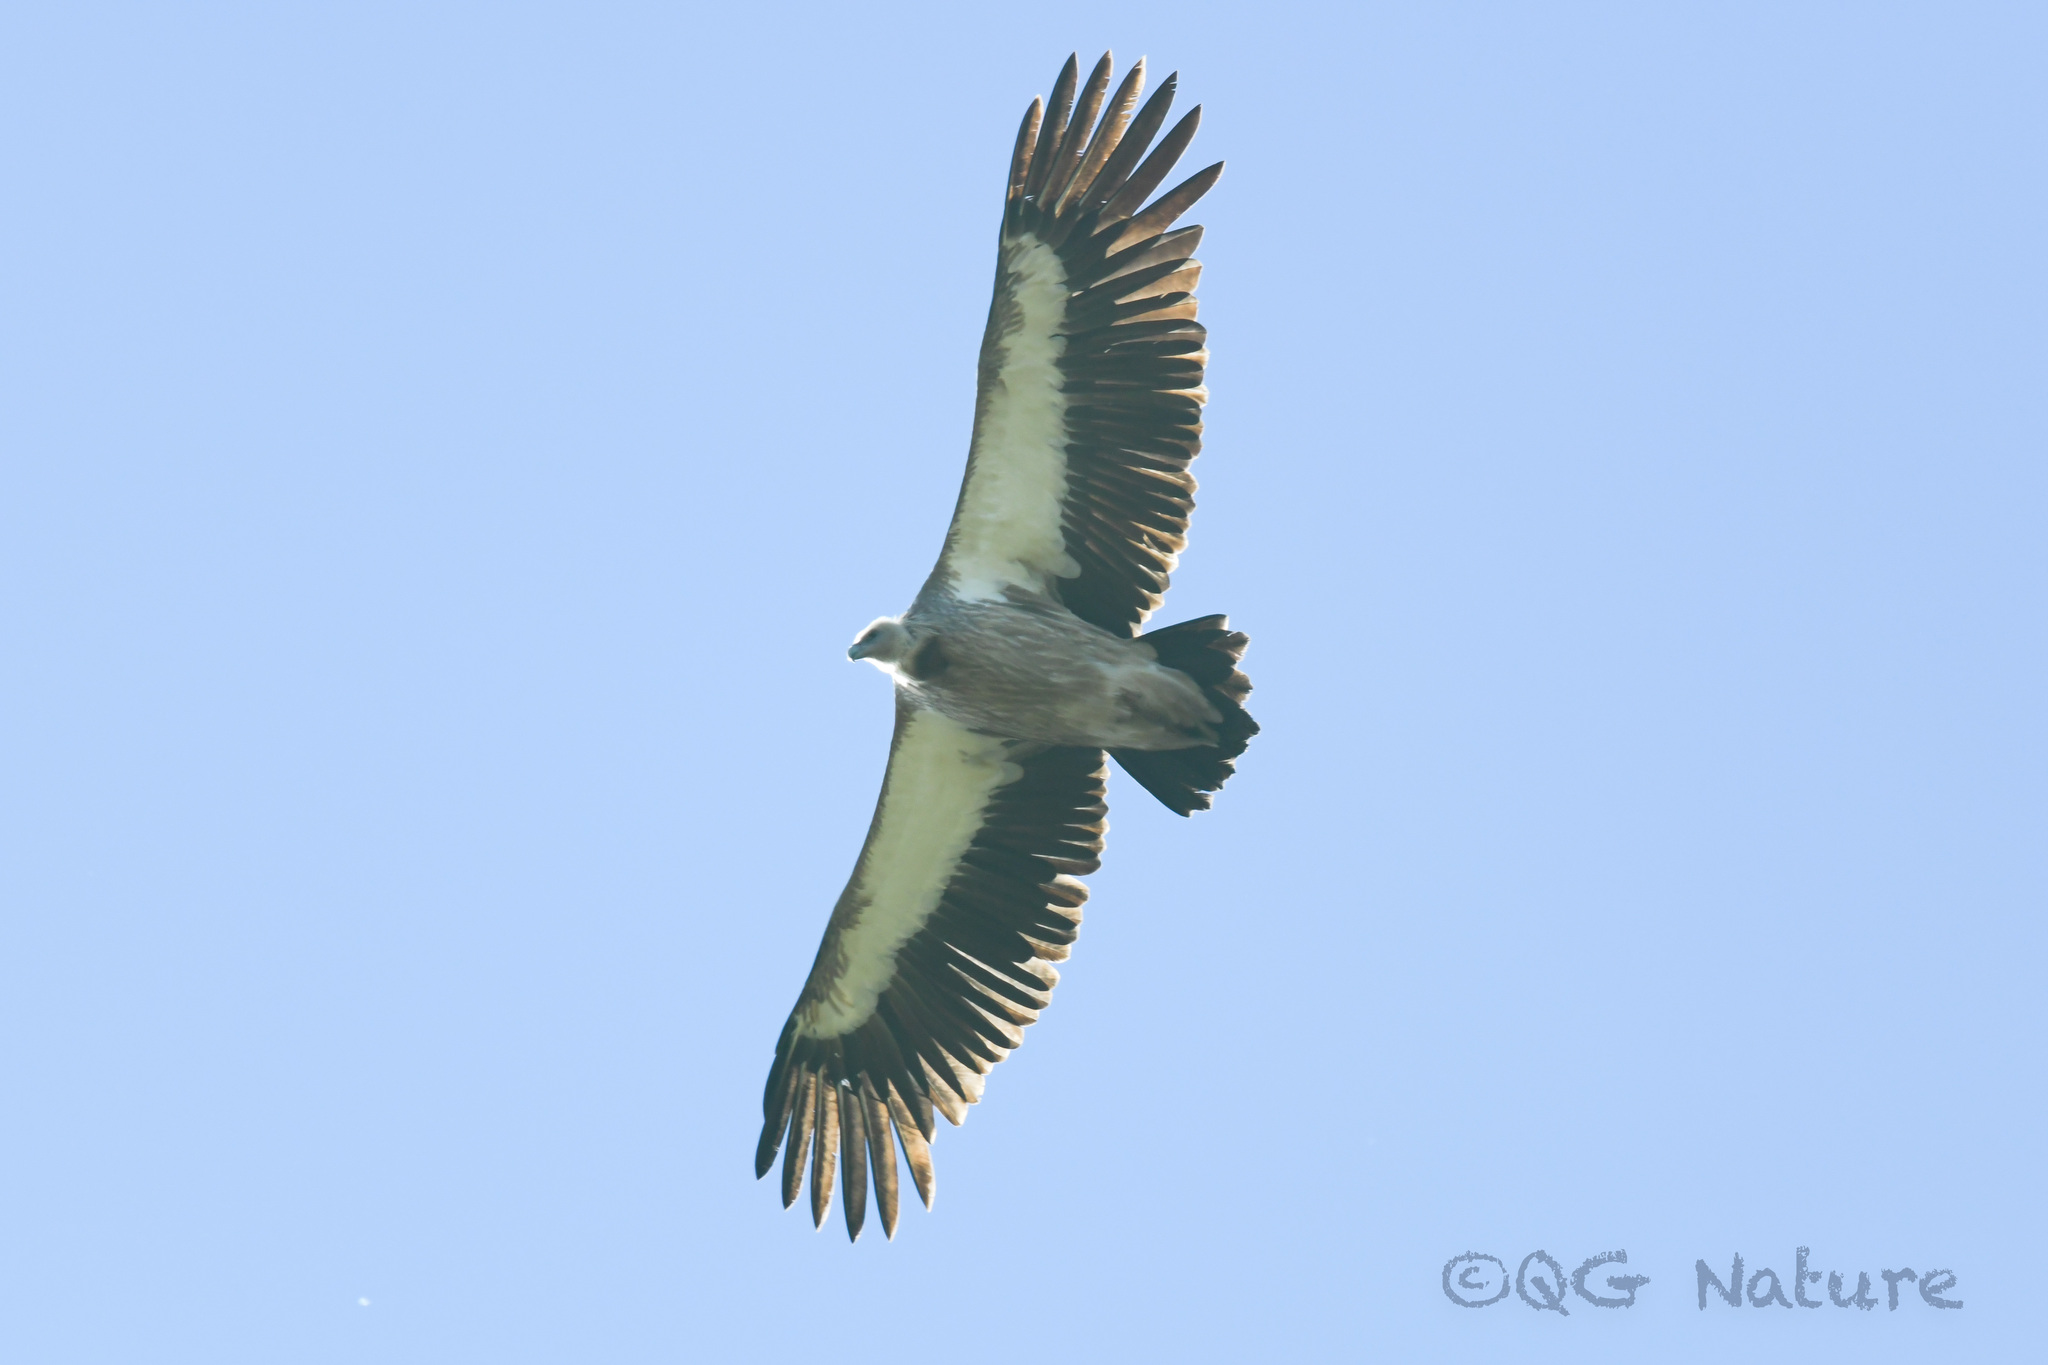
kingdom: Animalia
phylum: Chordata
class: Aves
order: Accipitriformes
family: Accipitridae
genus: Gyps
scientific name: Gyps himalayensis
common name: Himalayan griffon
